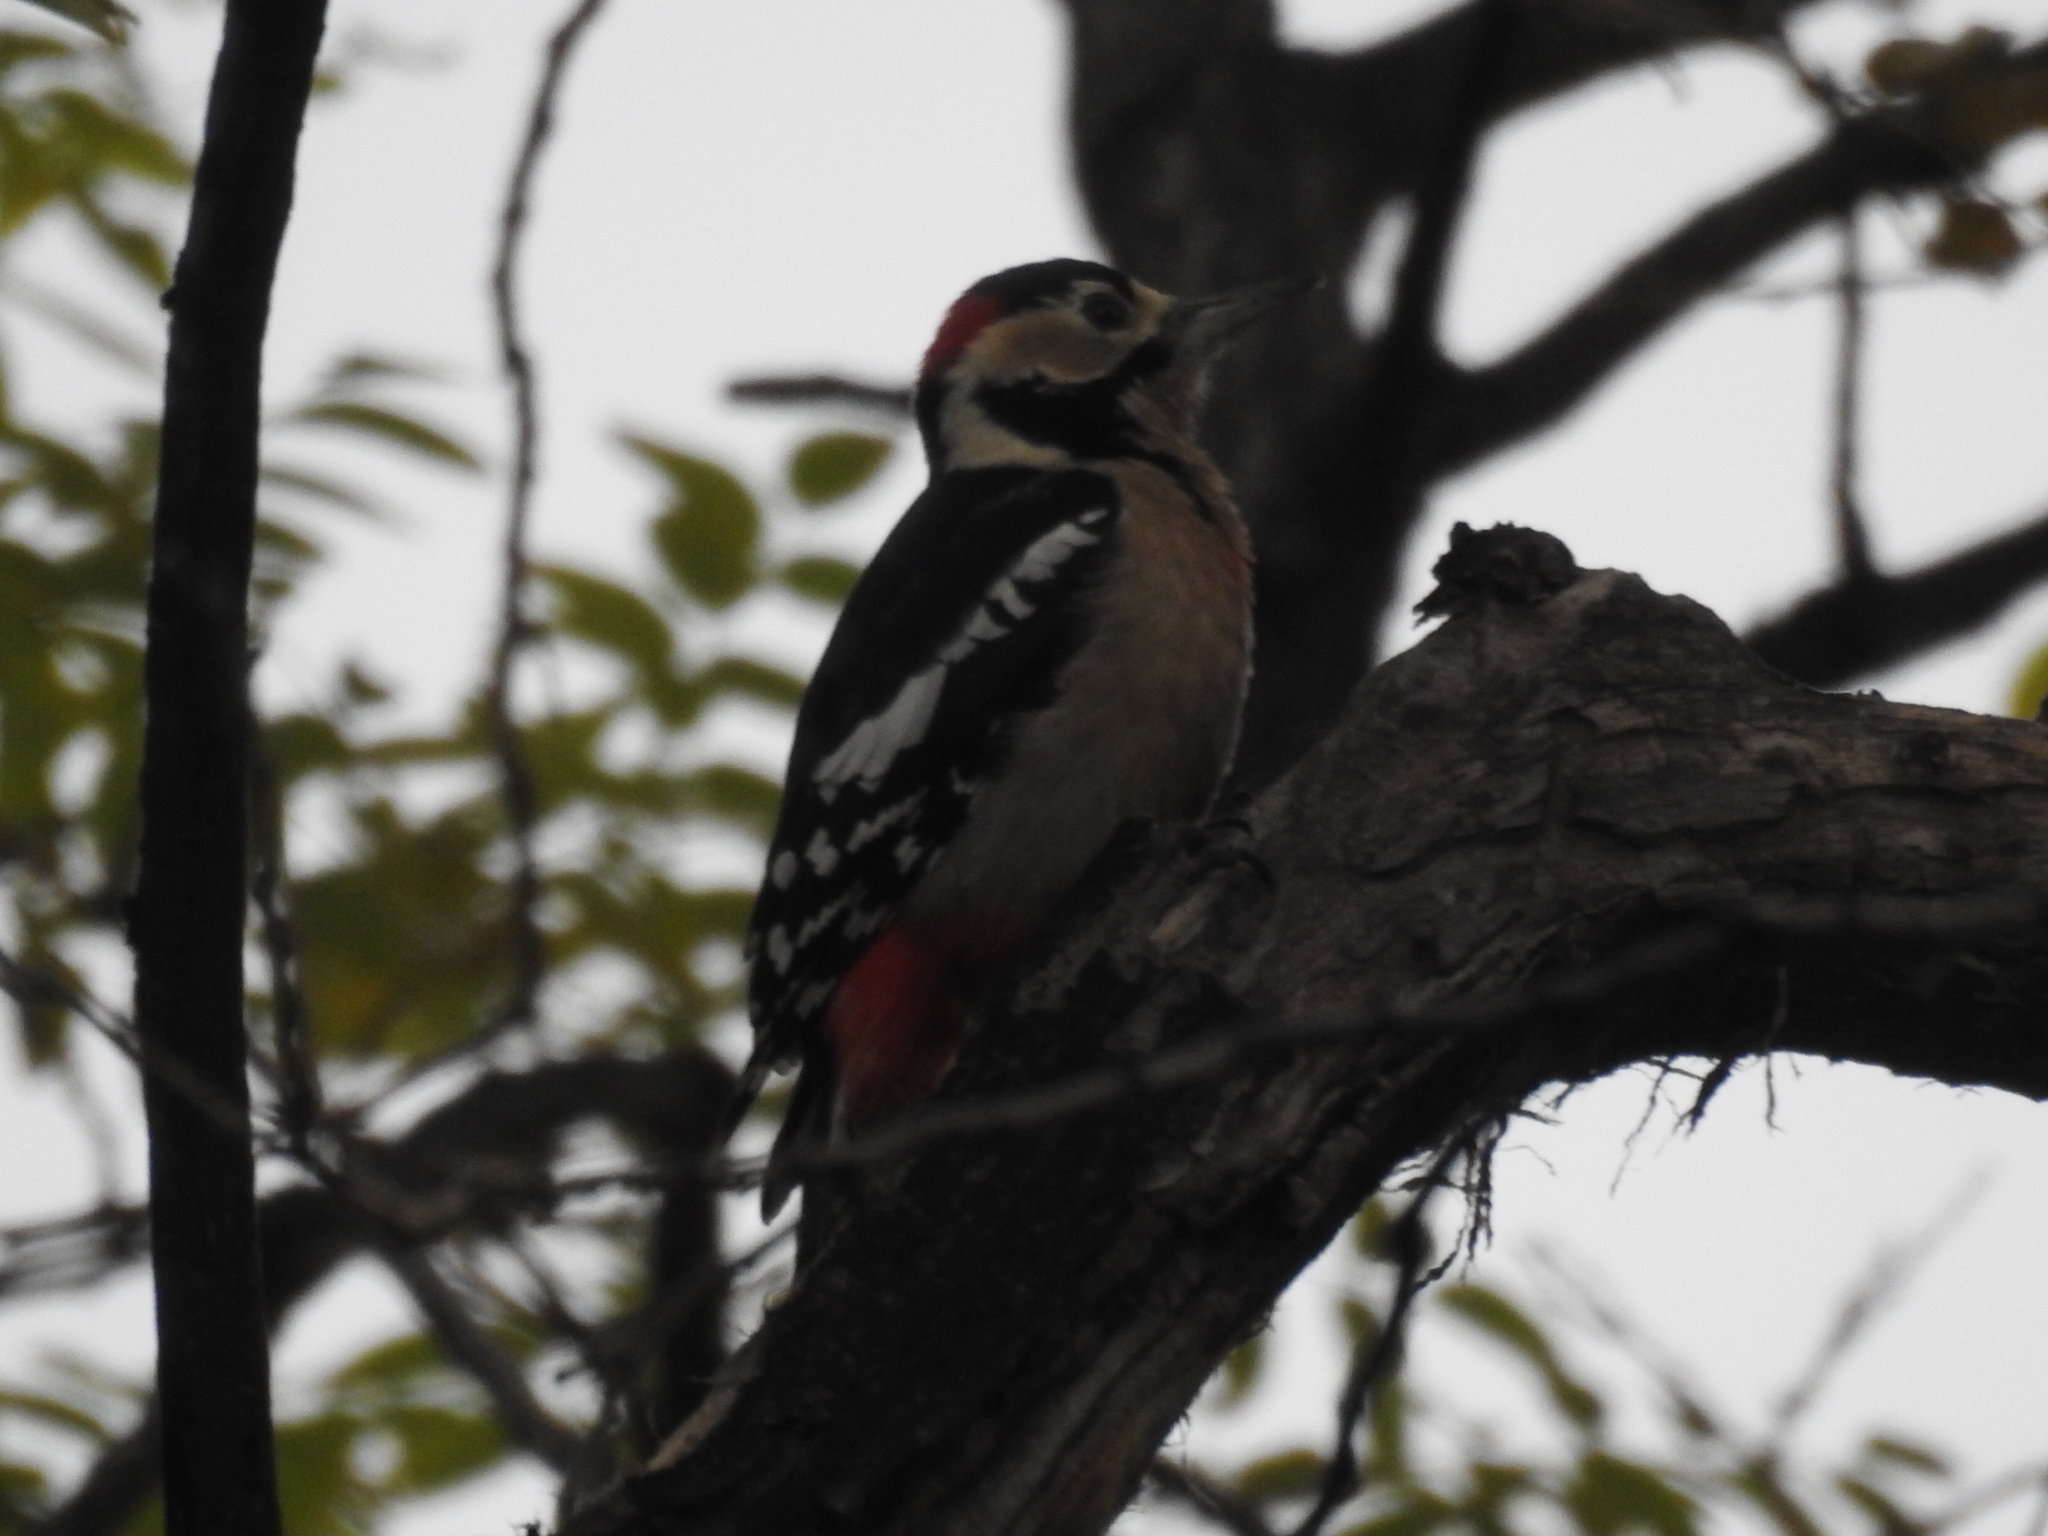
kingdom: Animalia
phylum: Chordata
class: Aves
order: Piciformes
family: Picidae
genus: Dendrocopos
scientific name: Dendrocopos major
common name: Great spotted woodpecker
